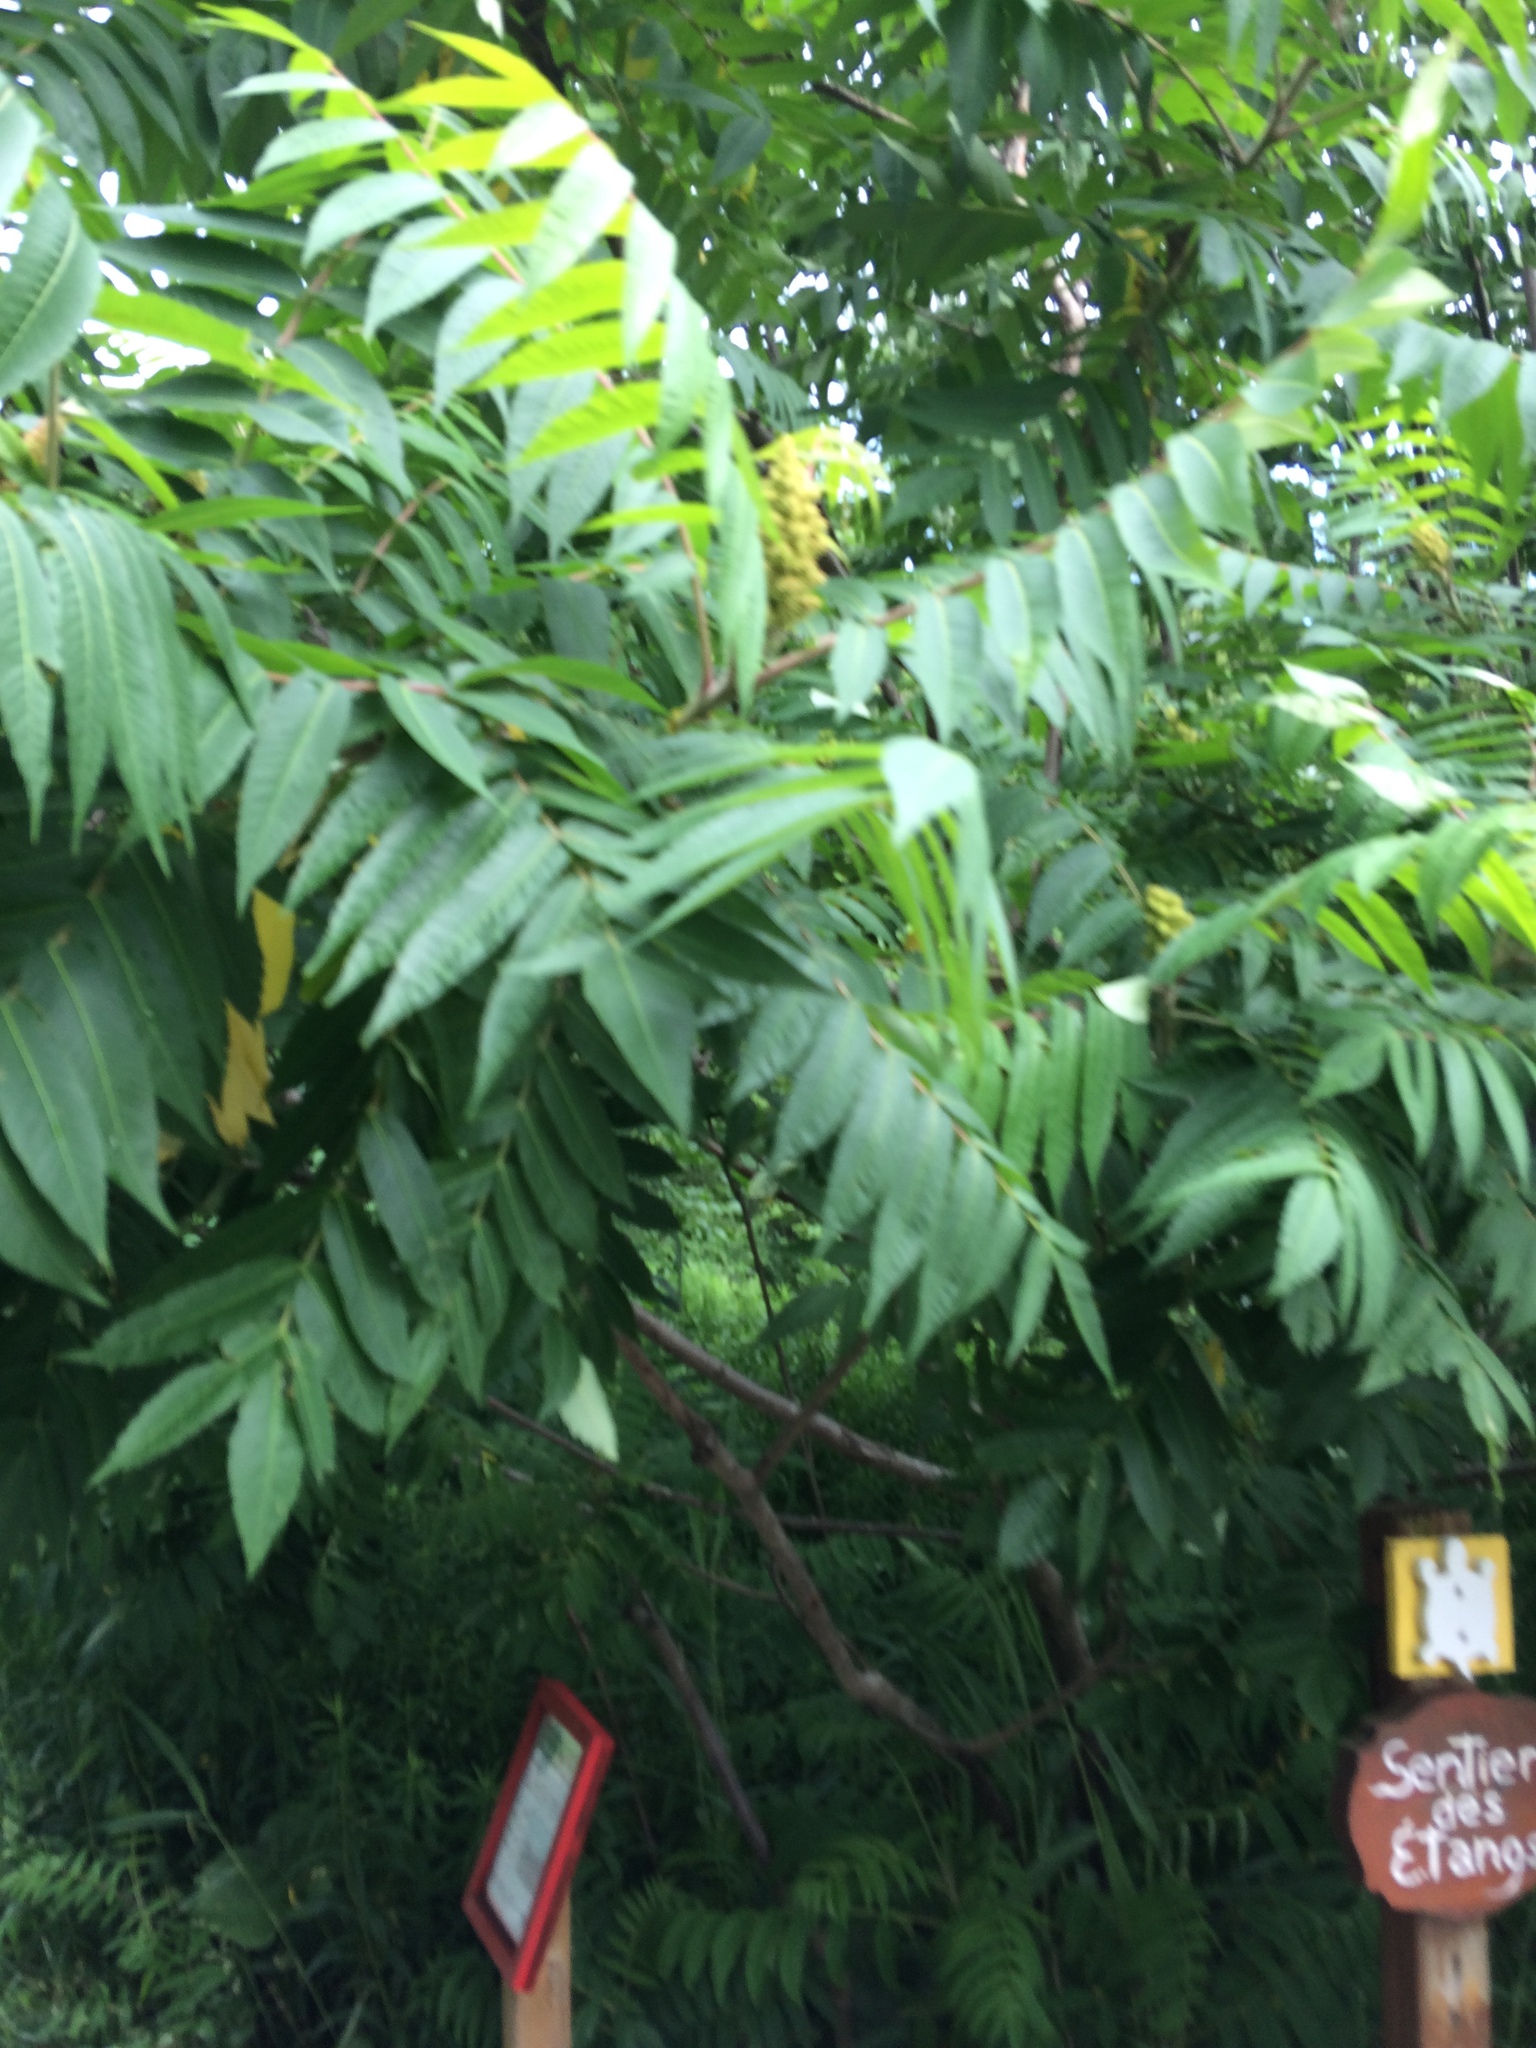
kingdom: Plantae
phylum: Tracheophyta
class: Magnoliopsida
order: Sapindales
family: Anacardiaceae
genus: Rhus
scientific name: Rhus typhina
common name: Staghorn sumac
